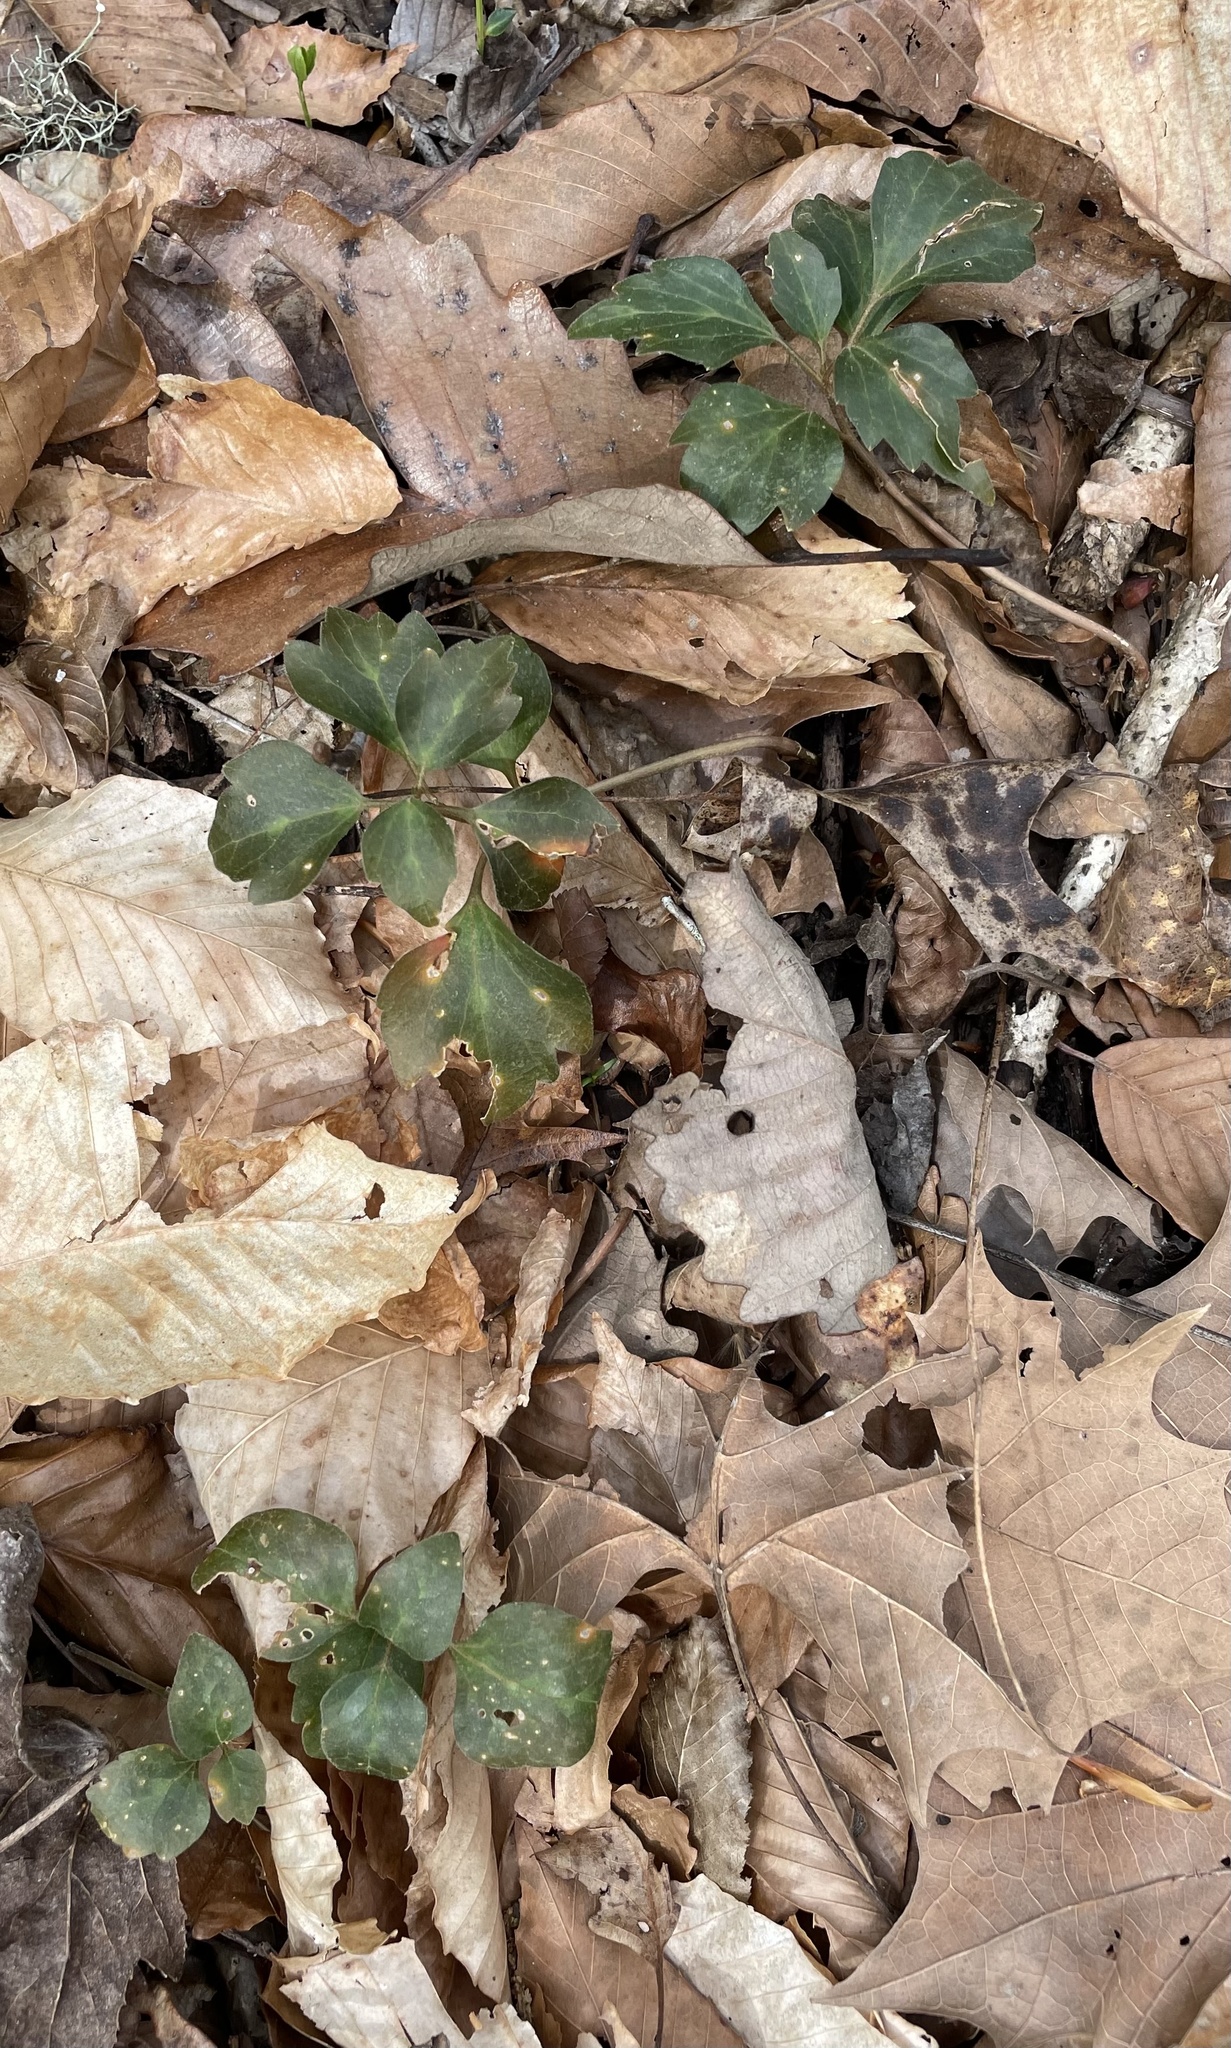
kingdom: Plantae
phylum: Tracheophyta
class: Magnoliopsida
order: Buxales
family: Buxaceae
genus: Pachysandra
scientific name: Pachysandra procumbens
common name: Mountain-spurge
